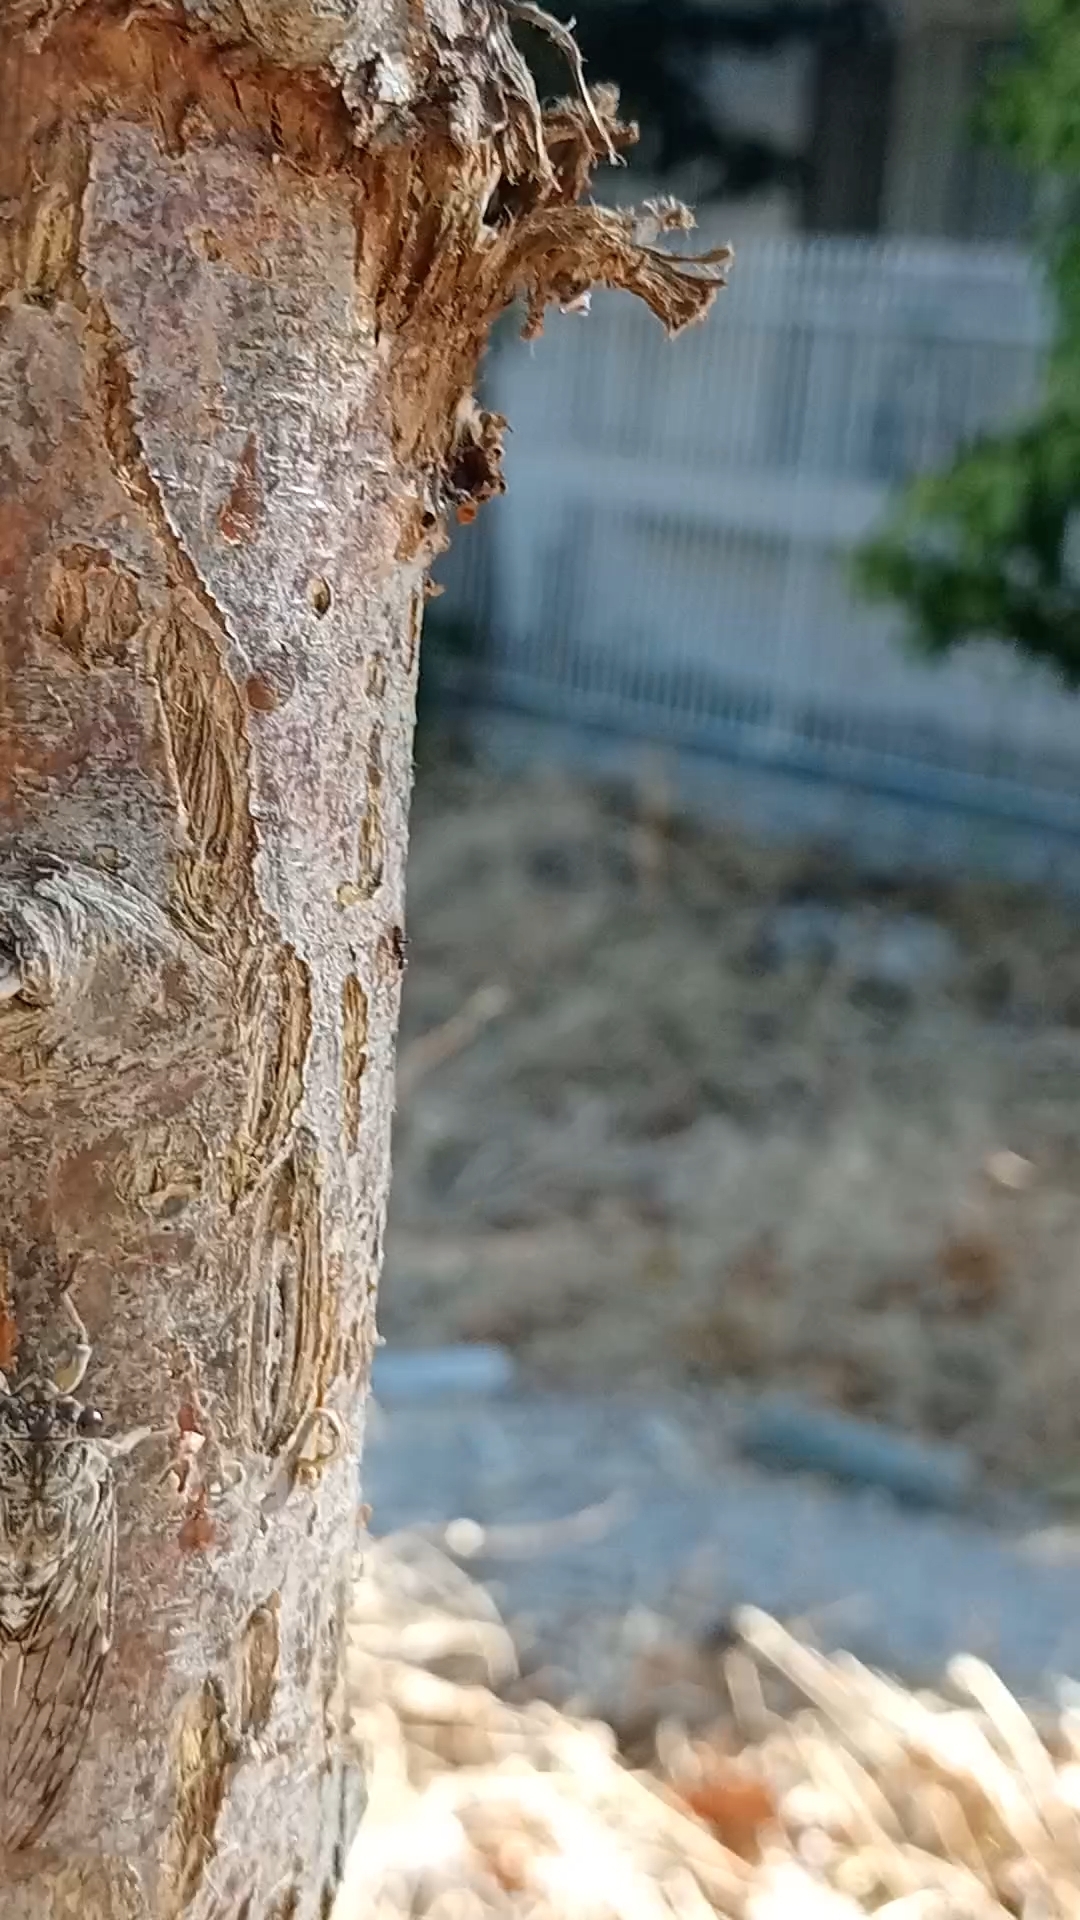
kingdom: Animalia
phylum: Arthropoda
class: Insecta
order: Hemiptera
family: Cicadidae
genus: Cicada
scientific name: Cicada mordoganensis
